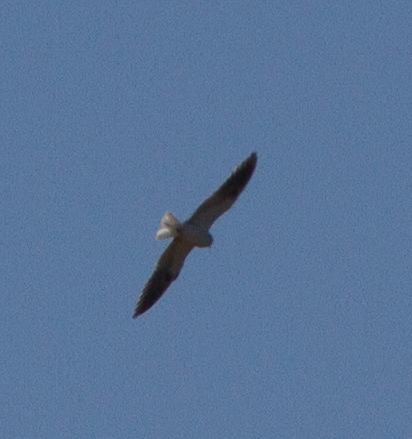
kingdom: Animalia
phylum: Chordata
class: Aves
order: Accipitriformes
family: Accipitridae
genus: Elanus
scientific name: Elanus leucurus
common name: White-tailed kite
